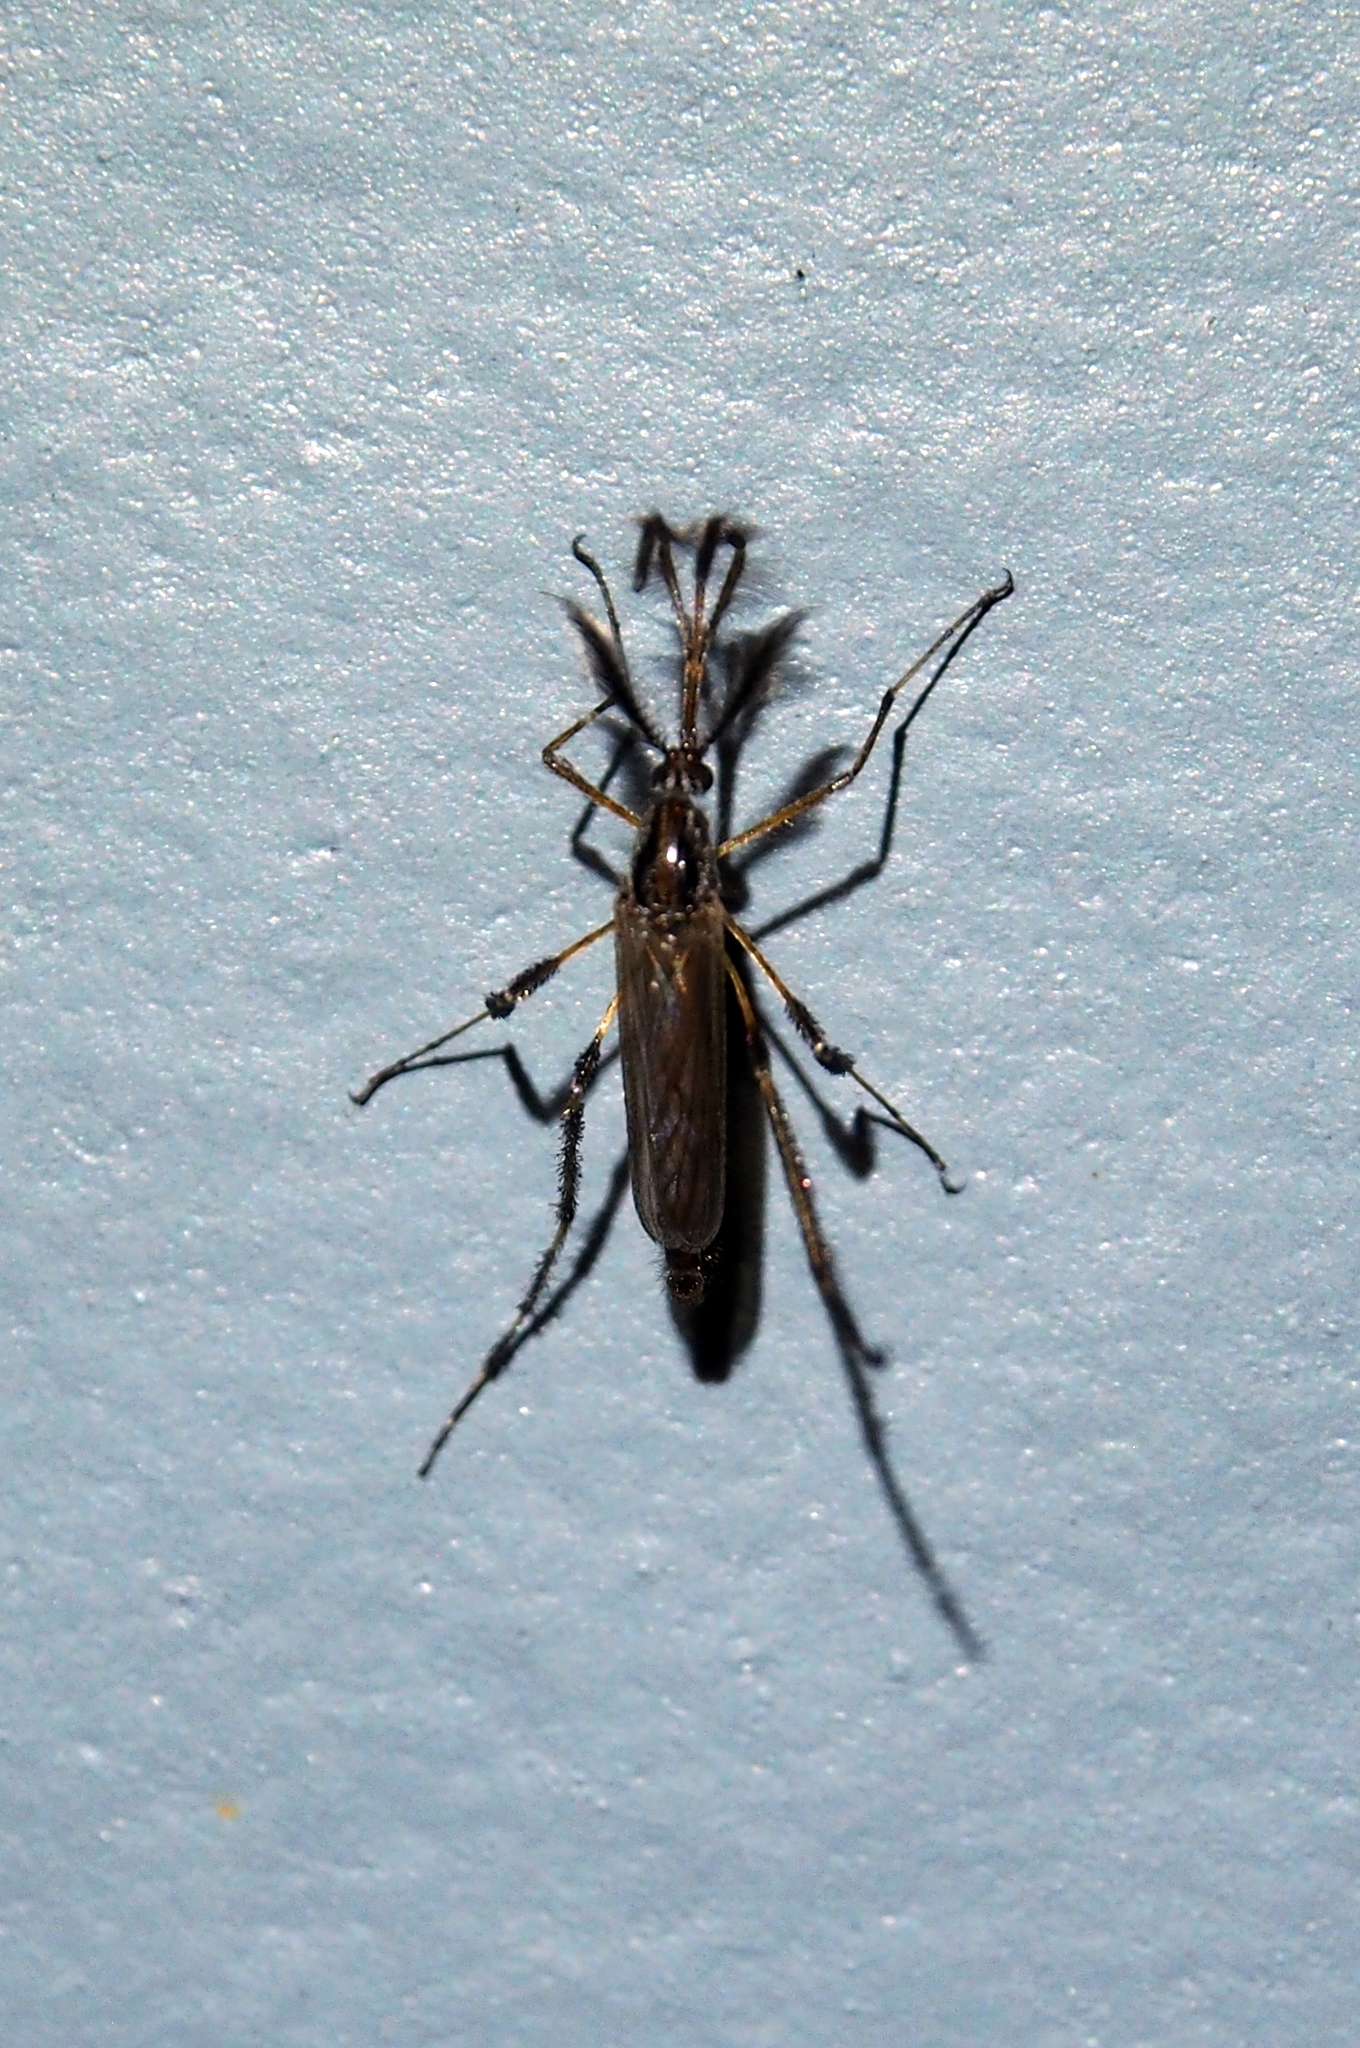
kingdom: Animalia
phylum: Arthropoda
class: Insecta
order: Diptera
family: Culicidae
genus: Psorophora
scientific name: Psorophora ciliata
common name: Gallinipper
